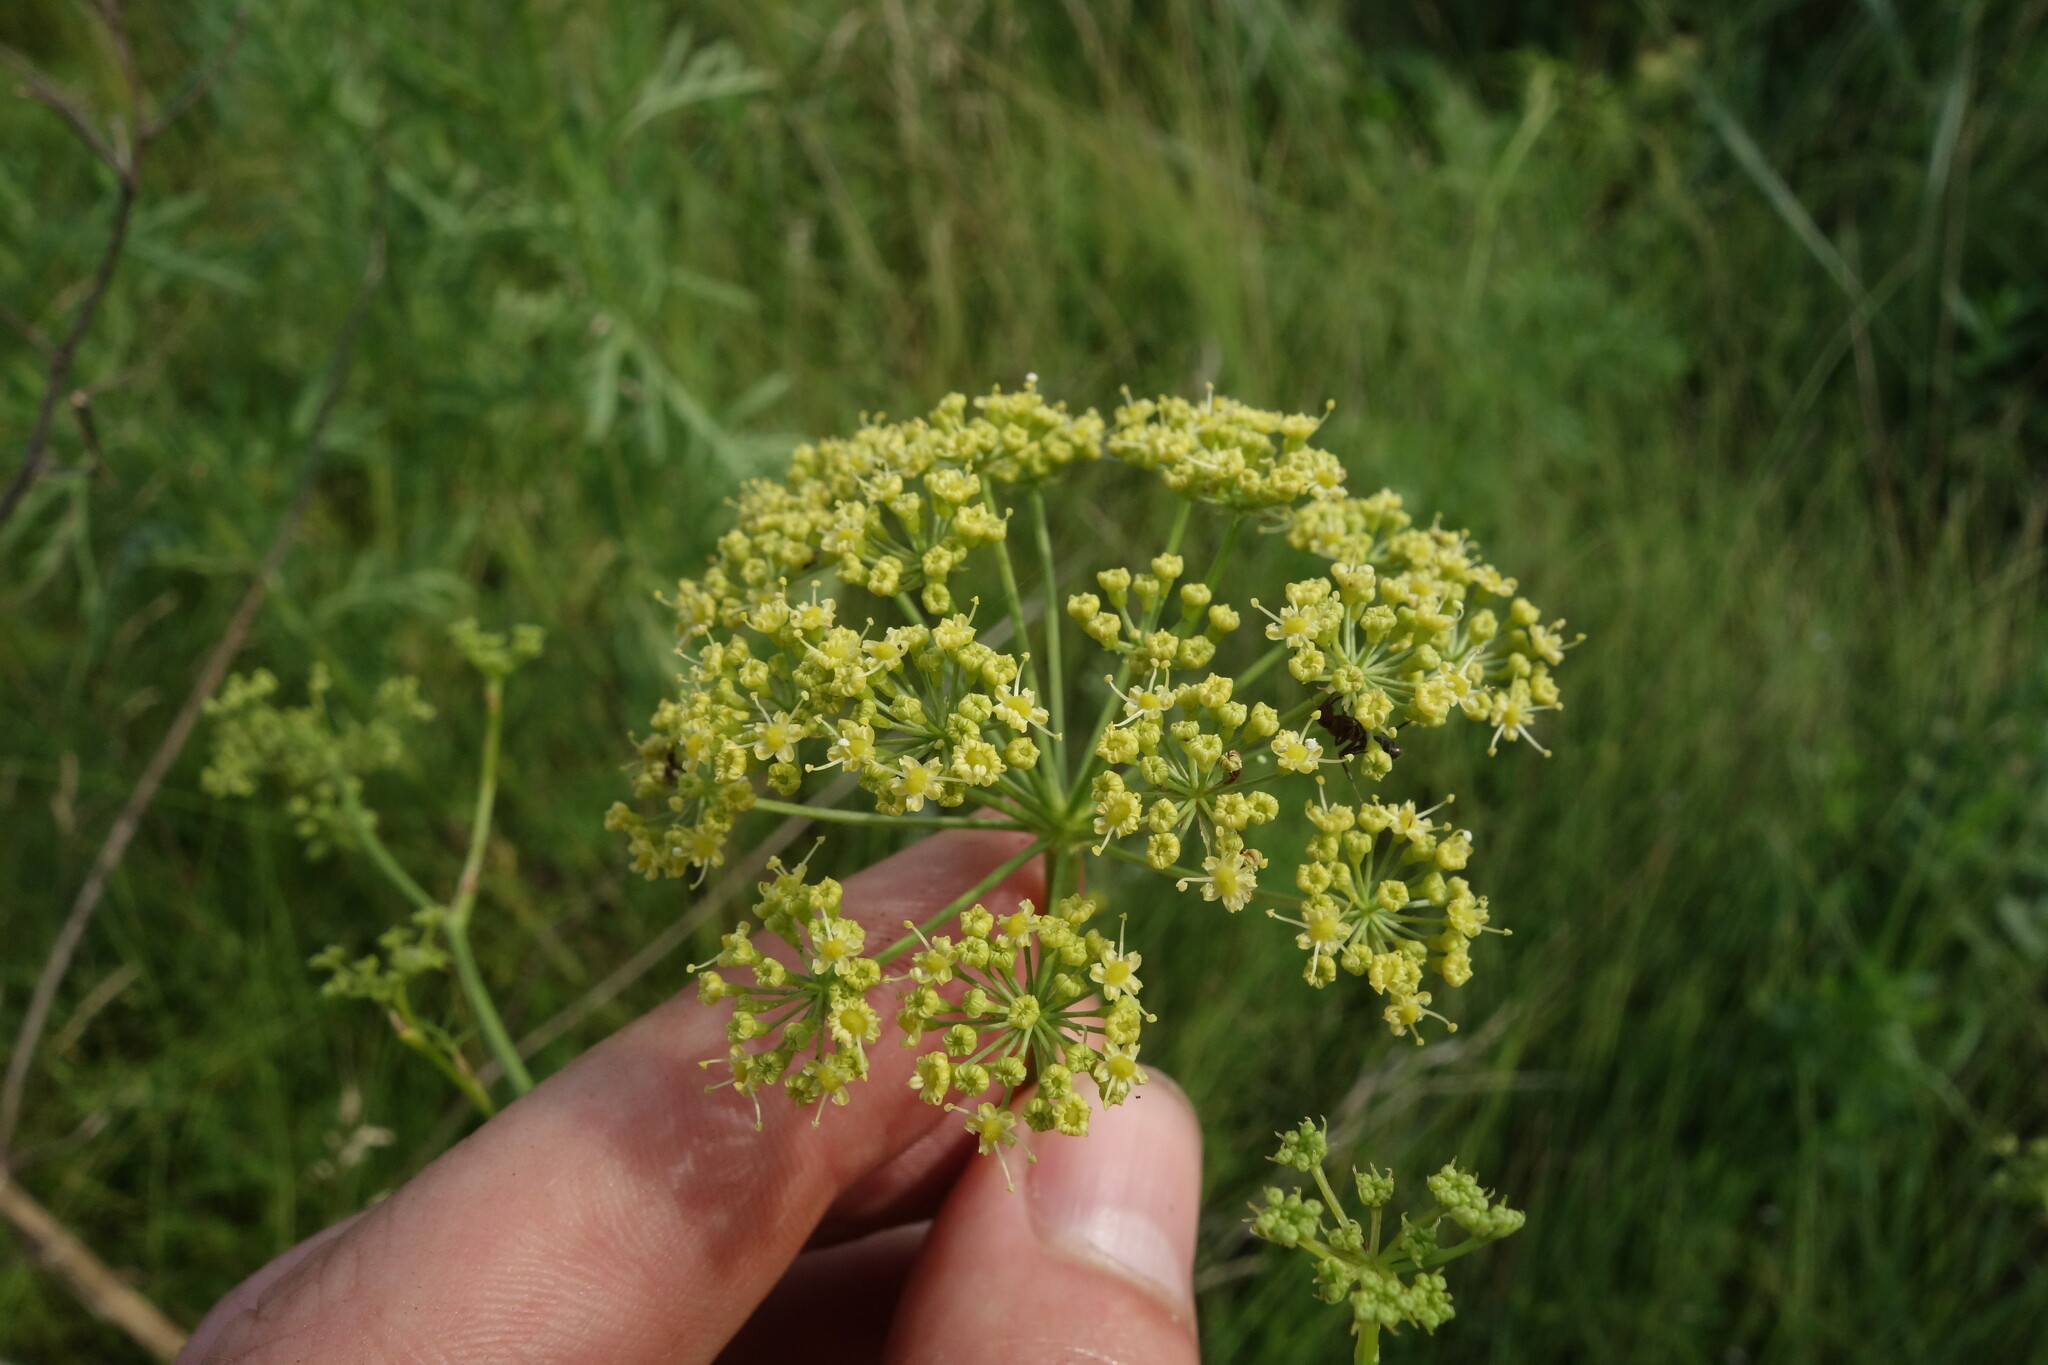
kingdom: Plantae
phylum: Tracheophyta
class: Magnoliopsida
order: Apiales
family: Apiaceae
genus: Silaum
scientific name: Silaum silaus
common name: Pepper-saxifrage
